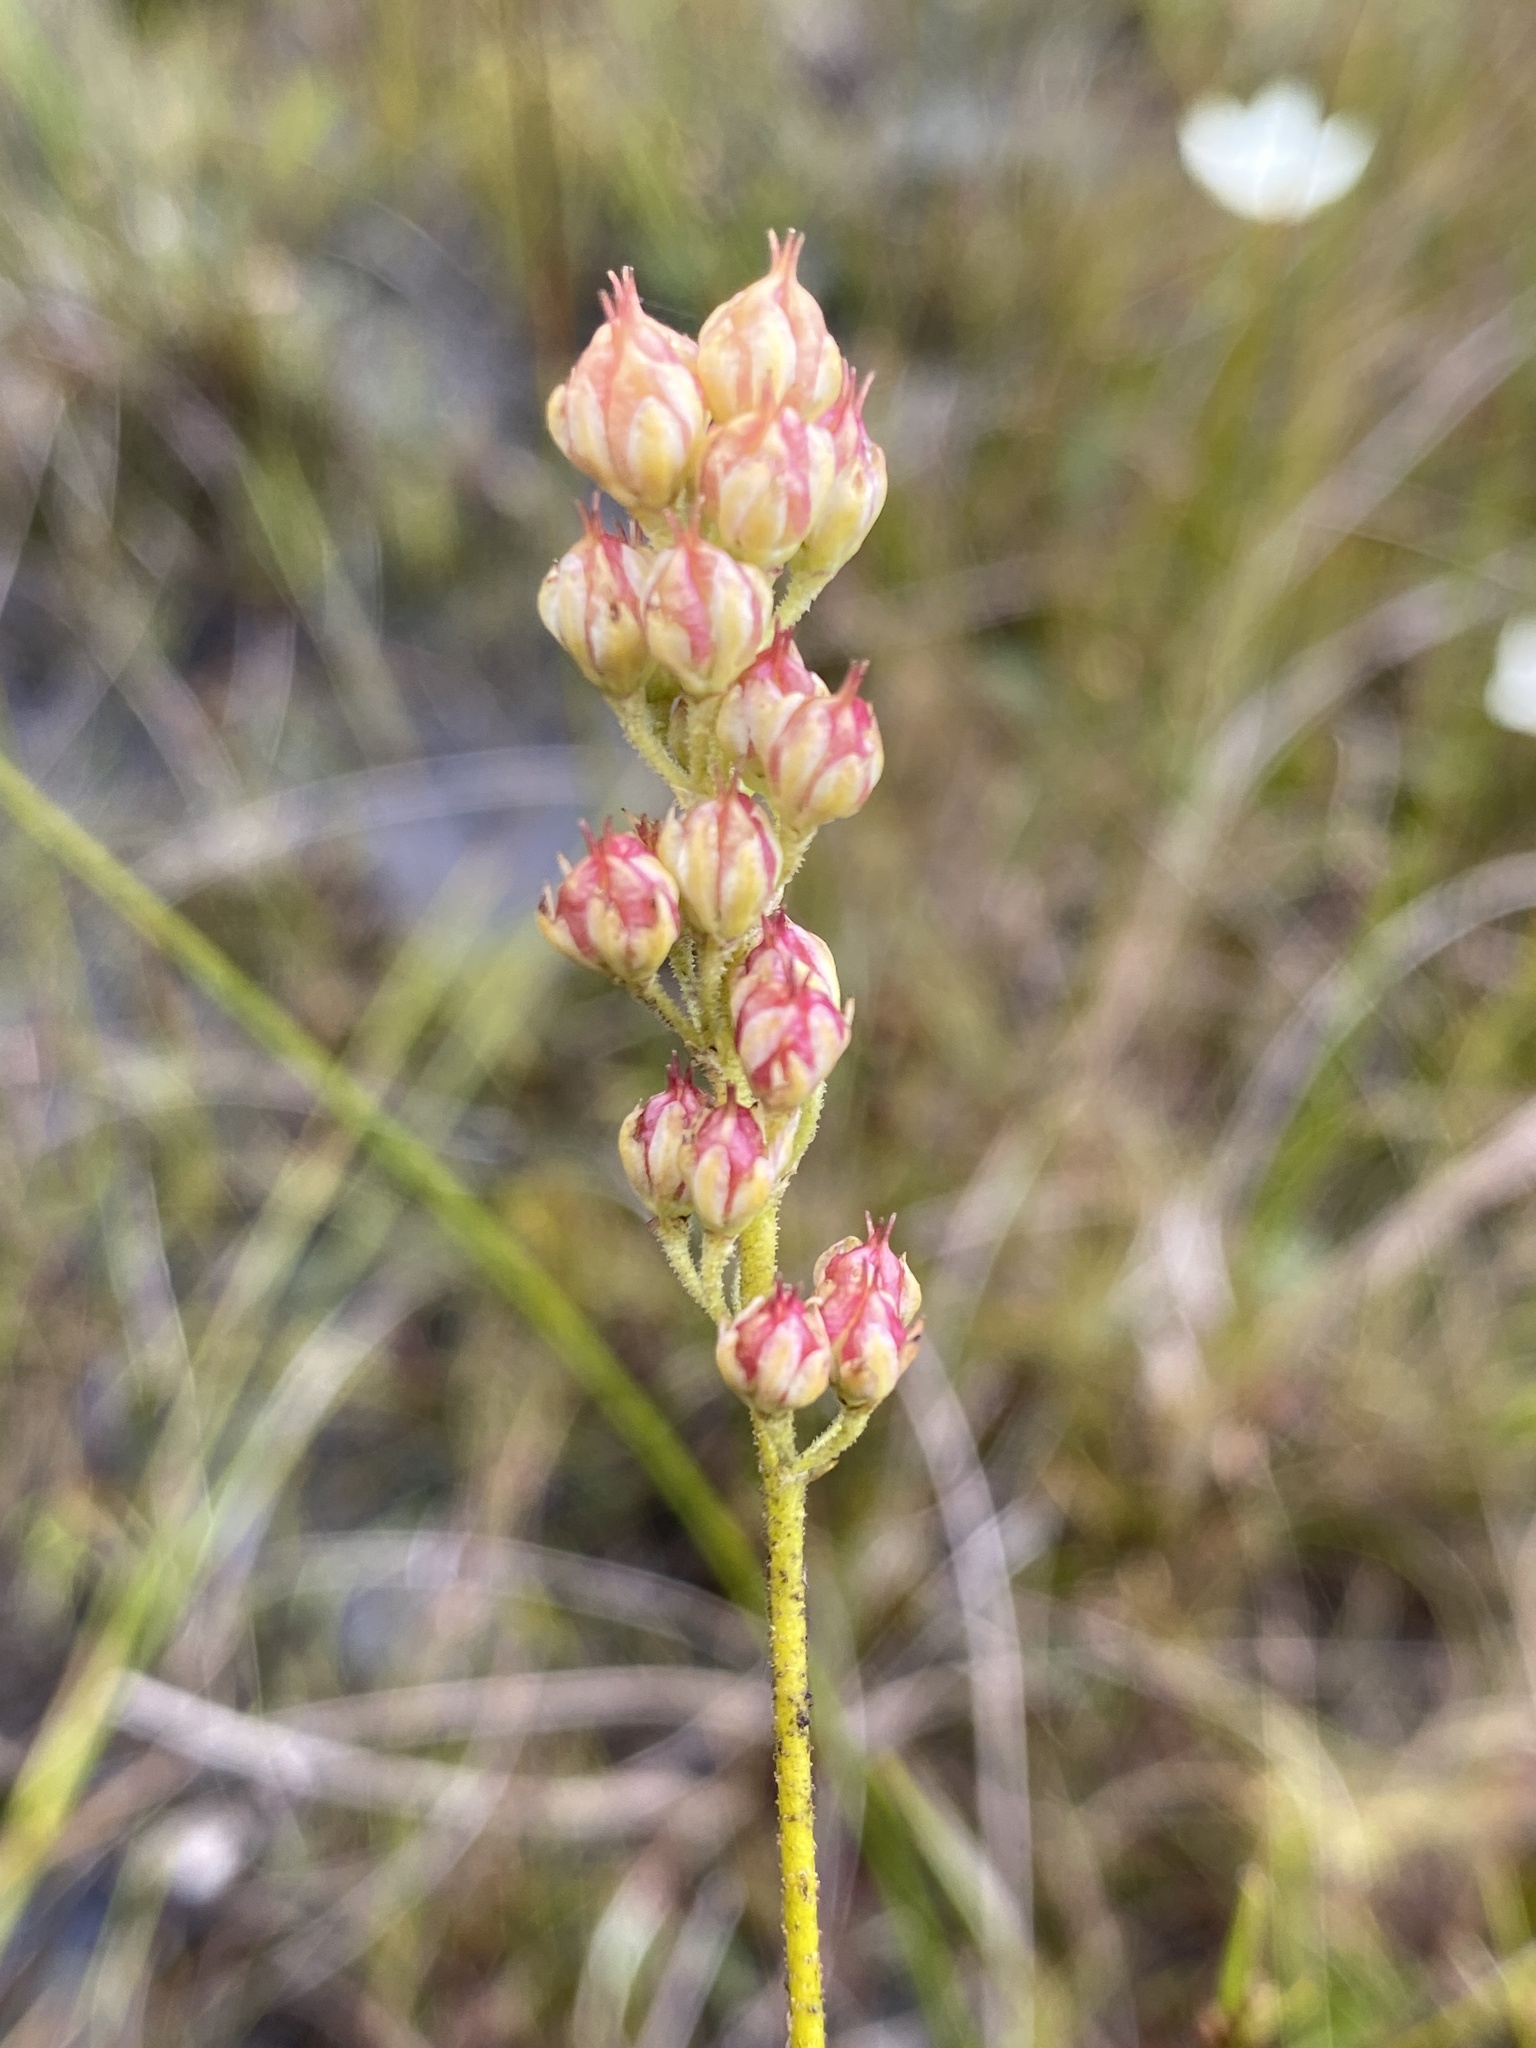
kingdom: Plantae
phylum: Tracheophyta
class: Liliopsida
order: Alismatales
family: Tofieldiaceae
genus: Triantha
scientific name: Triantha glutinosa
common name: Glutinous tofieldia
